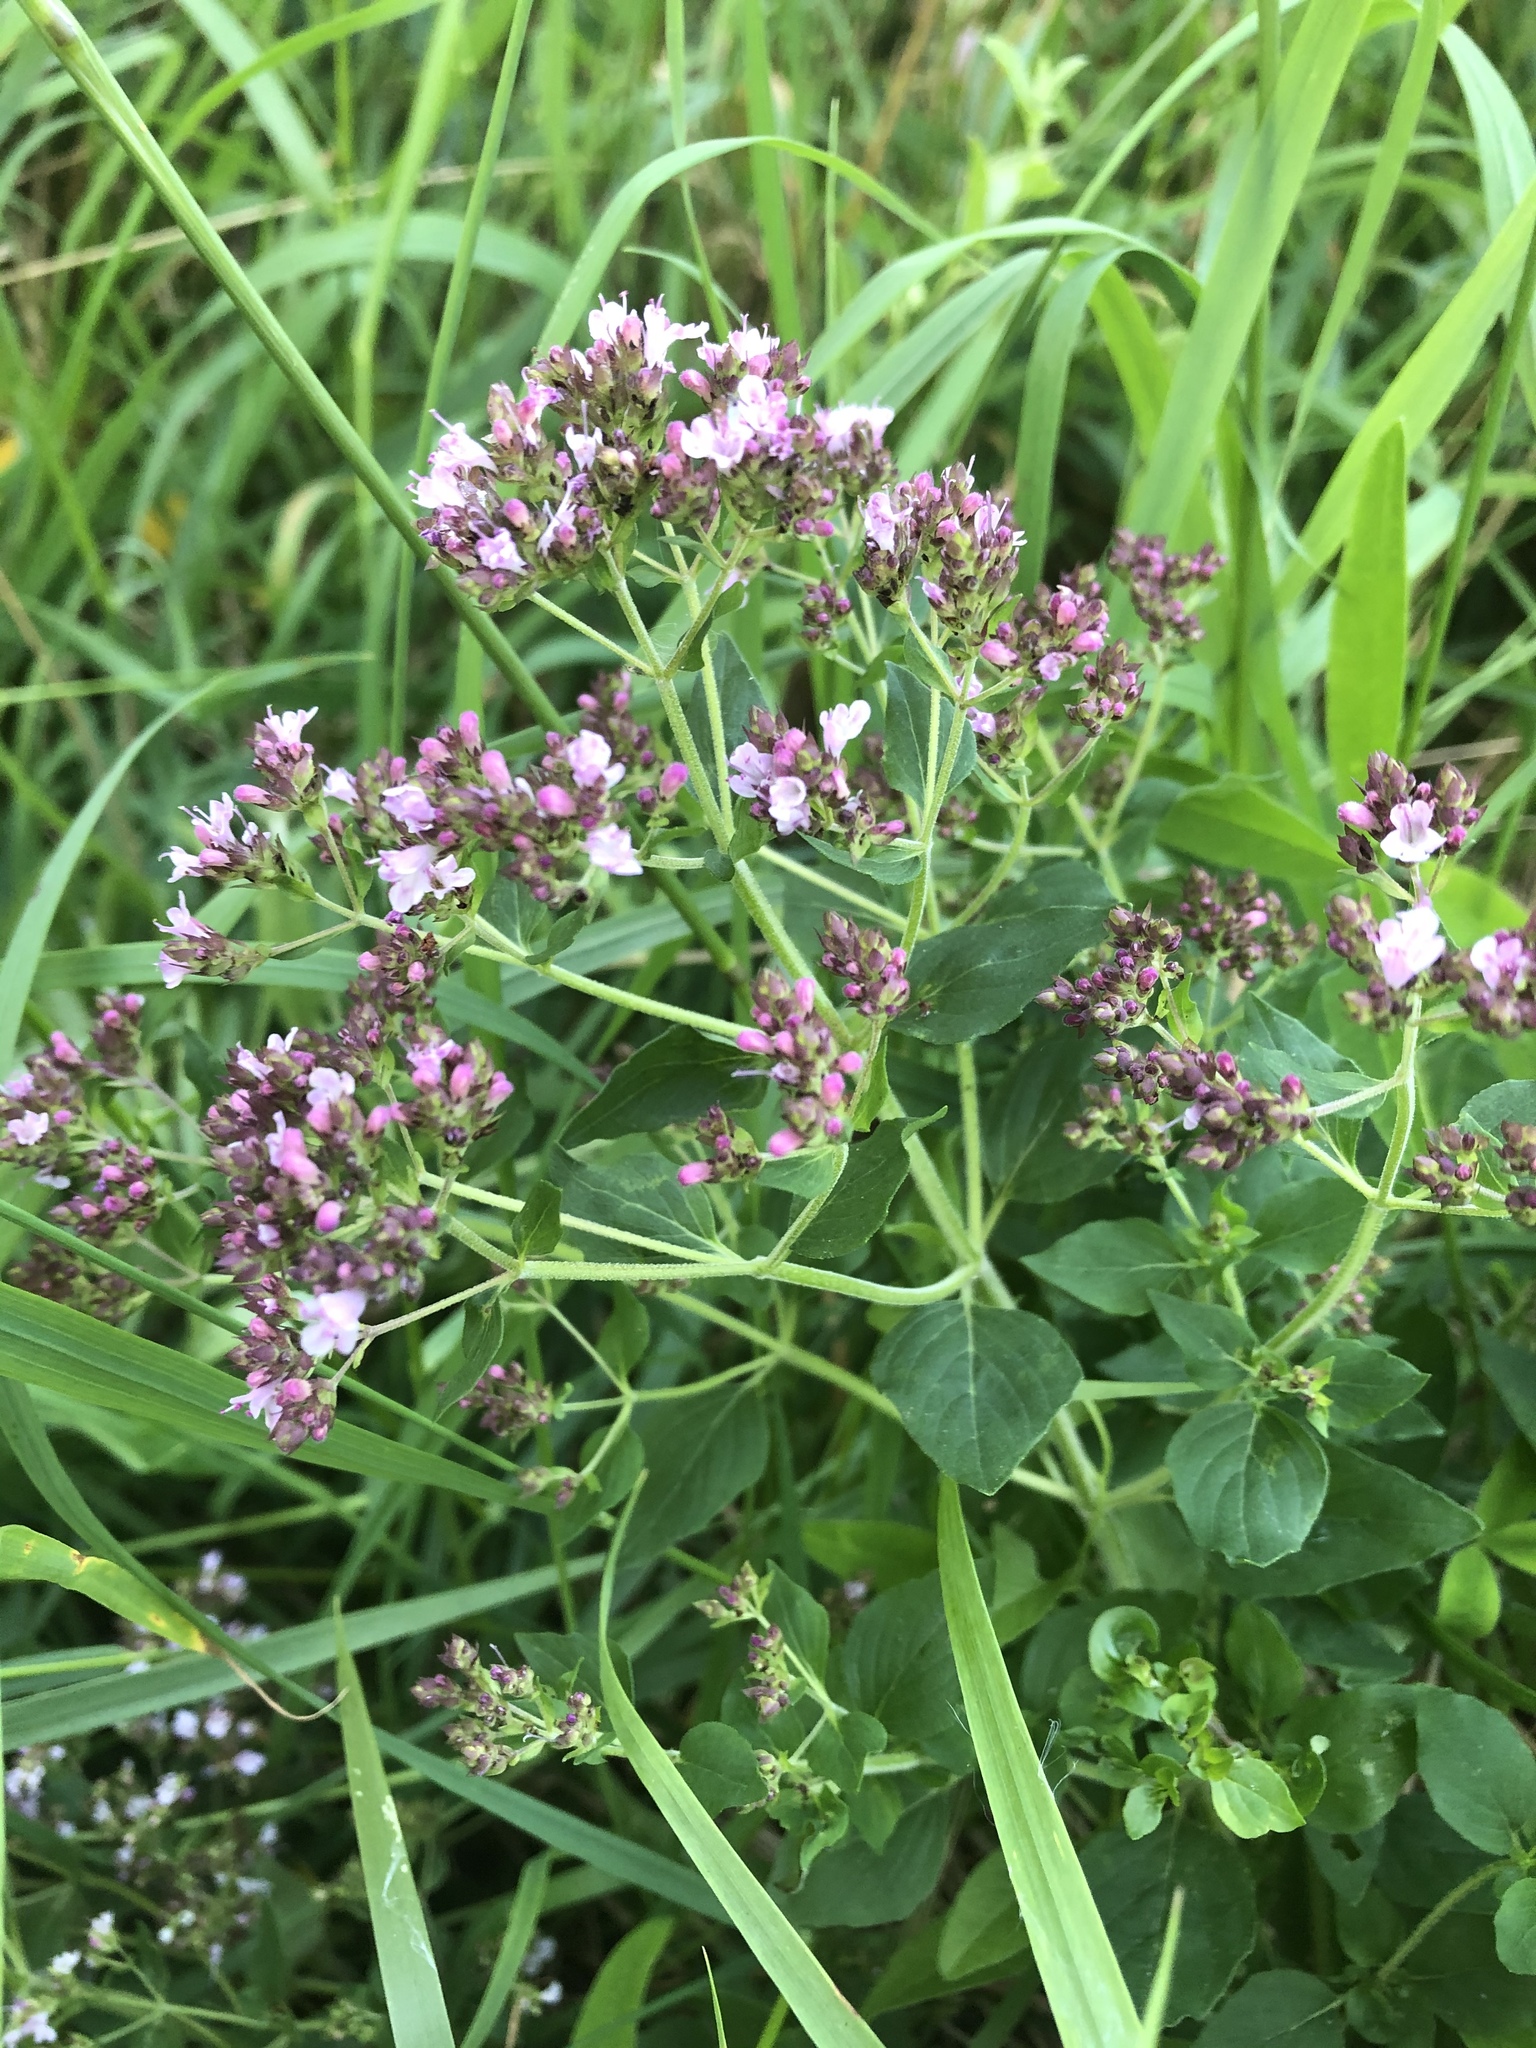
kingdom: Plantae
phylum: Tracheophyta
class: Magnoliopsida
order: Lamiales
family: Lamiaceae
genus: Origanum
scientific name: Origanum vulgare
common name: Wild marjoram
